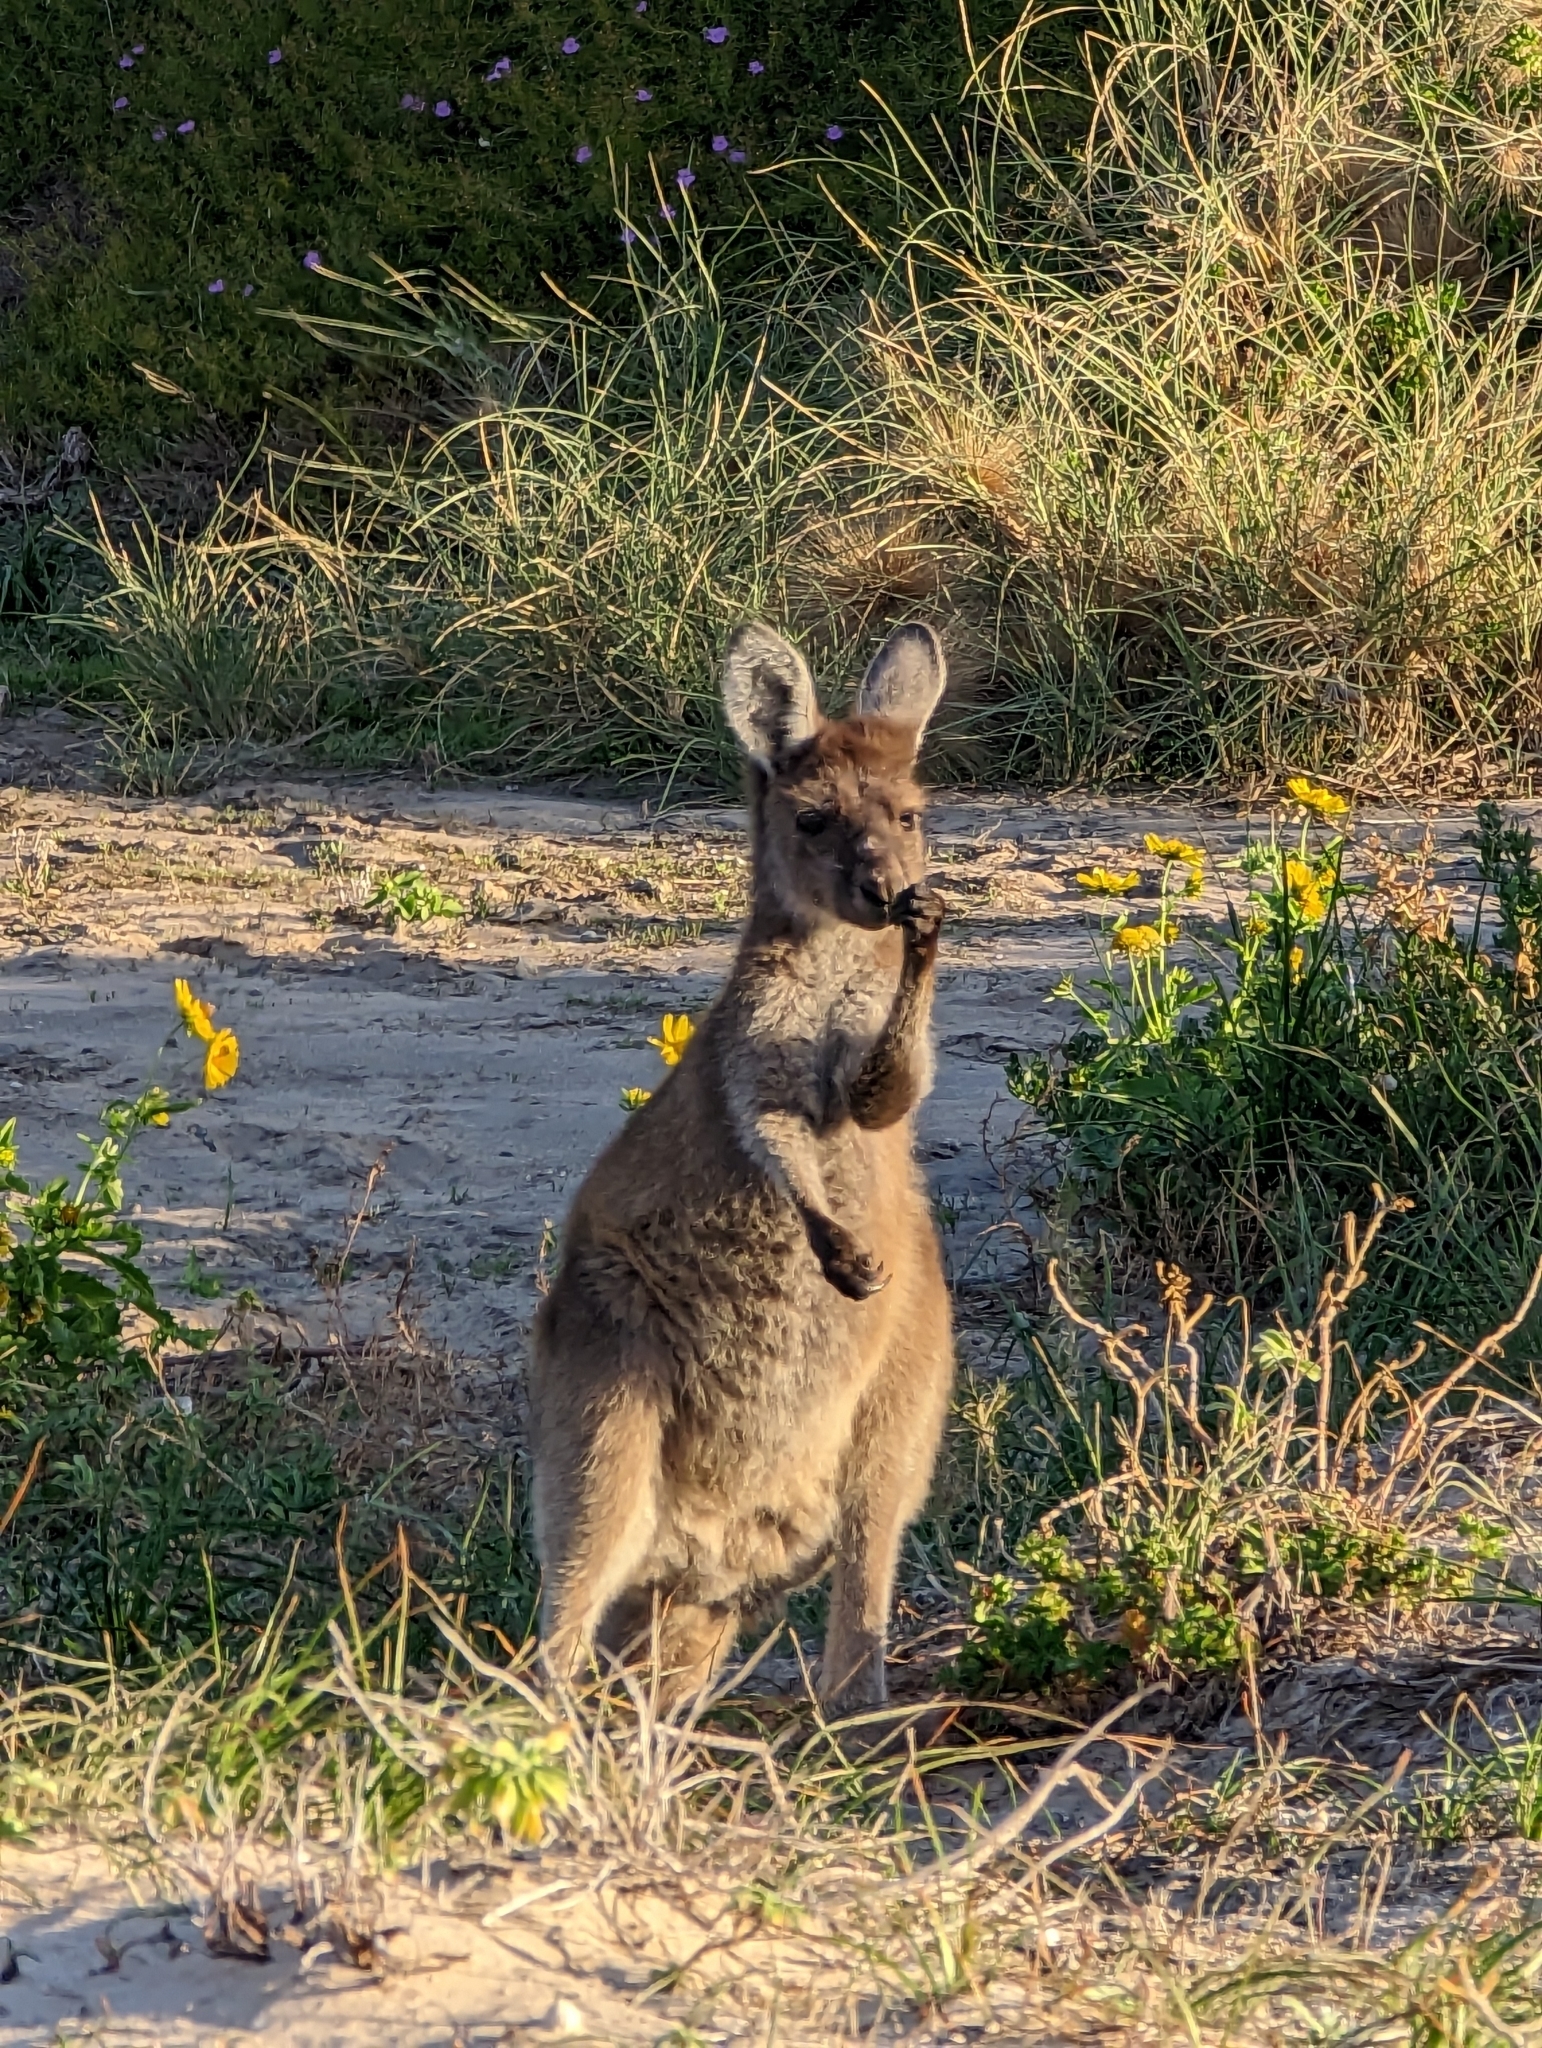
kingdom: Animalia
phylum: Chordata
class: Mammalia
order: Diprotodontia
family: Macropodidae
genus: Macropus
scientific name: Macropus fuliginosus
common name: Western grey kangaroo
